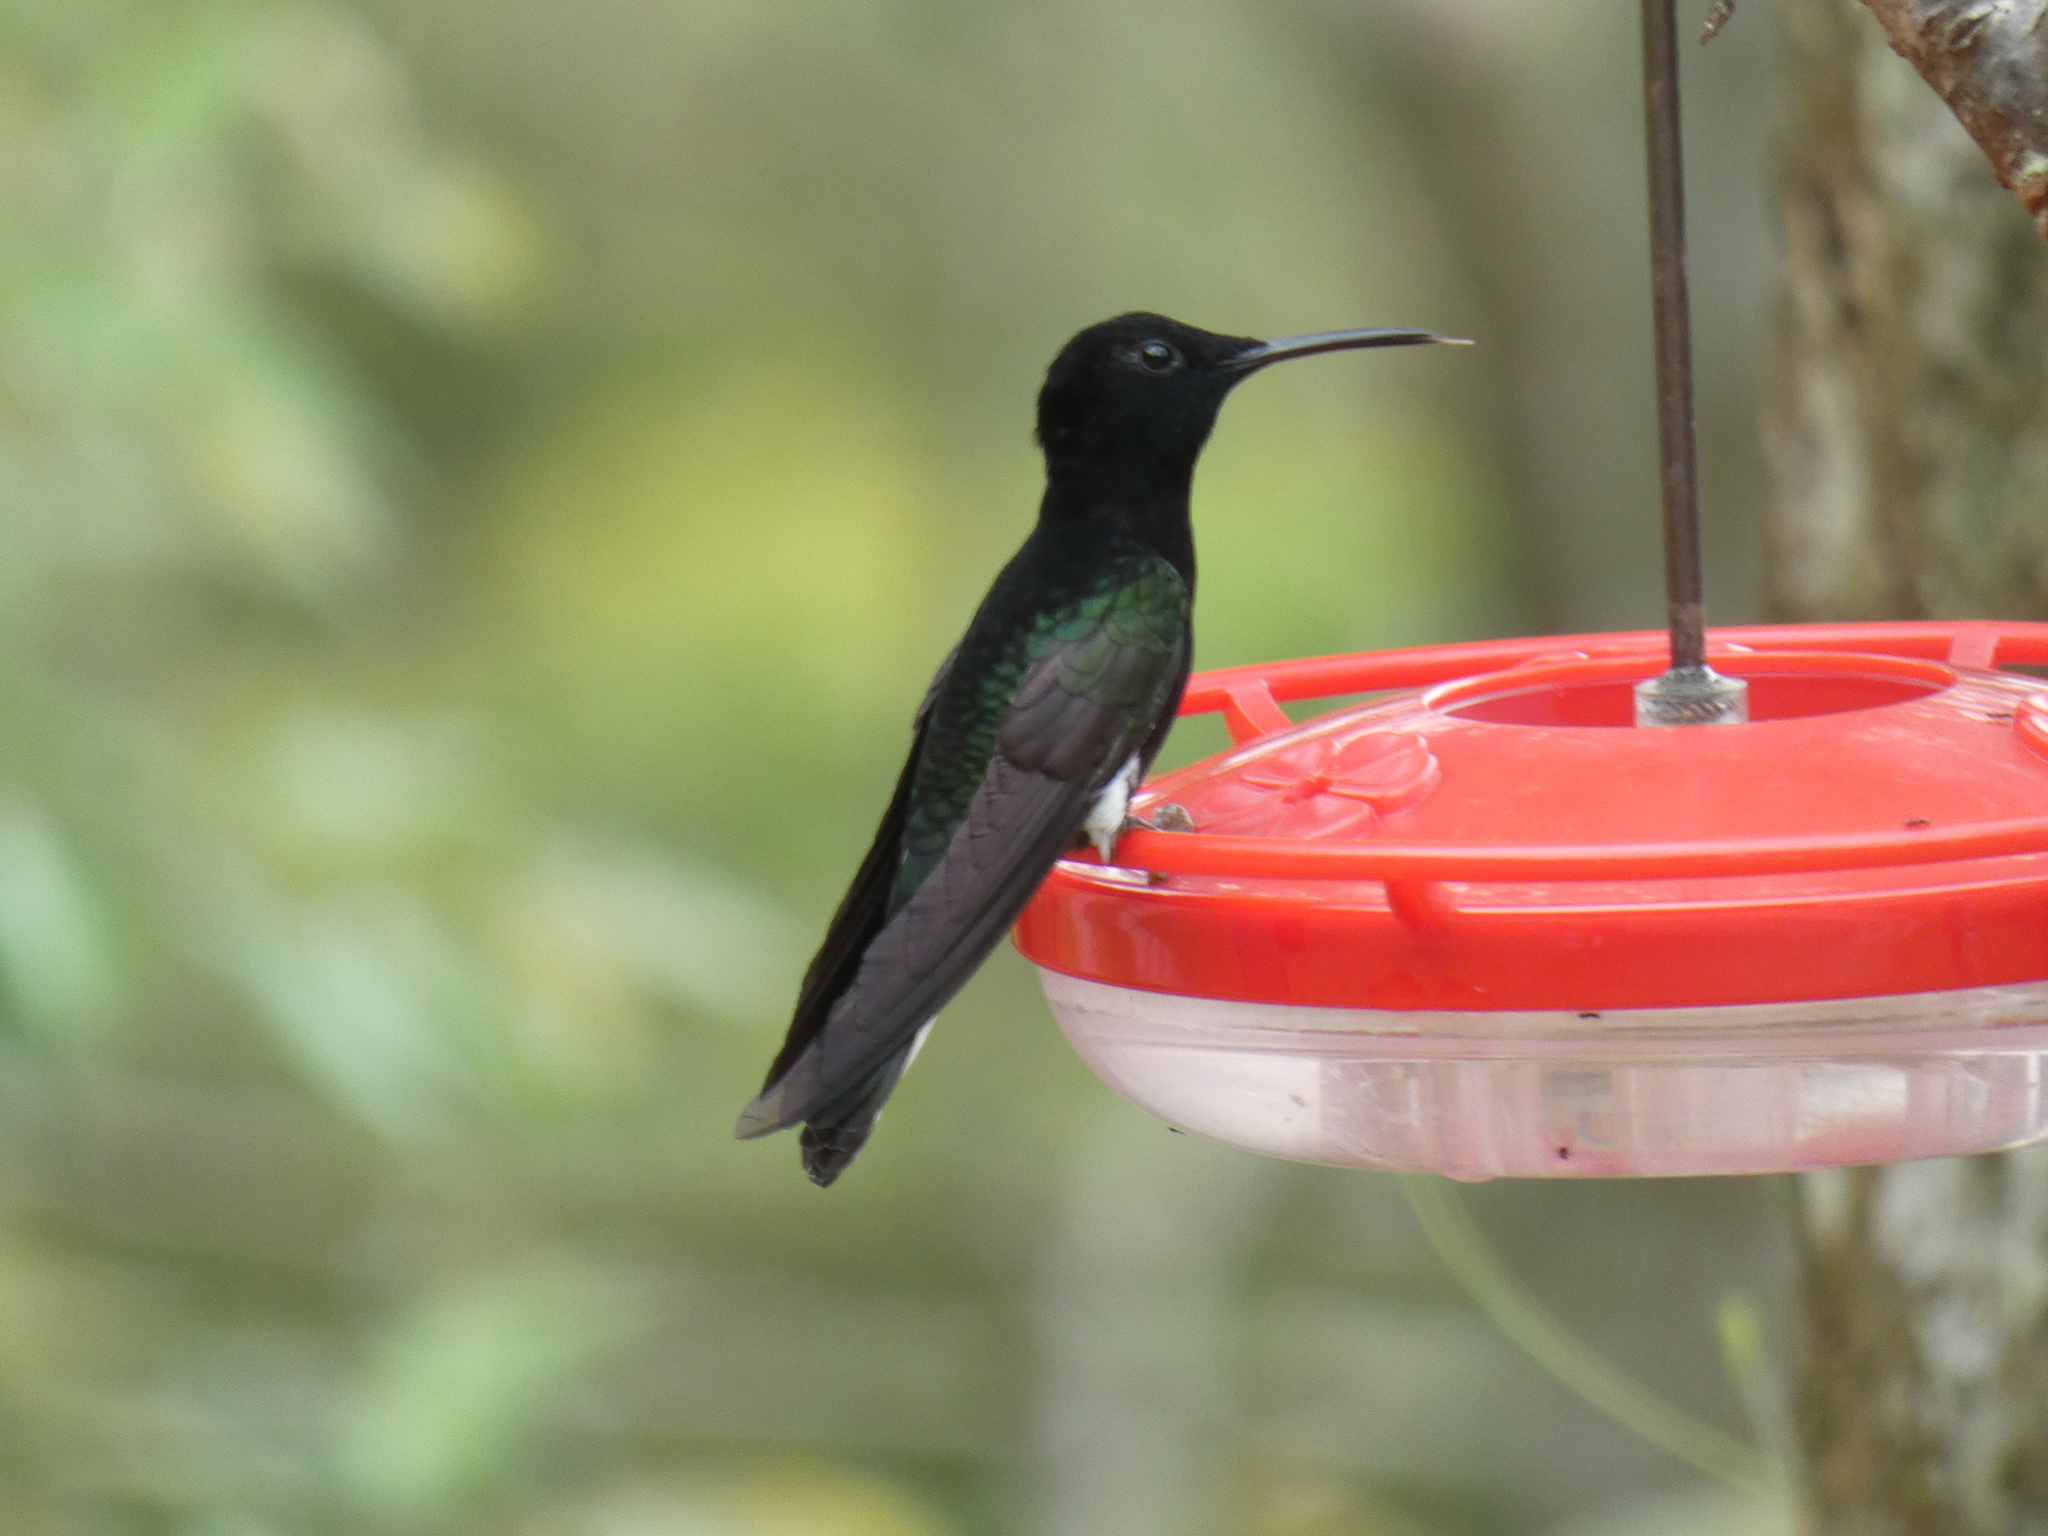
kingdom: Animalia
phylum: Chordata
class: Aves
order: Apodiformes
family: Trochilidae
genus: Florisuga
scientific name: Florisuga fusca
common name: Black jacobin
